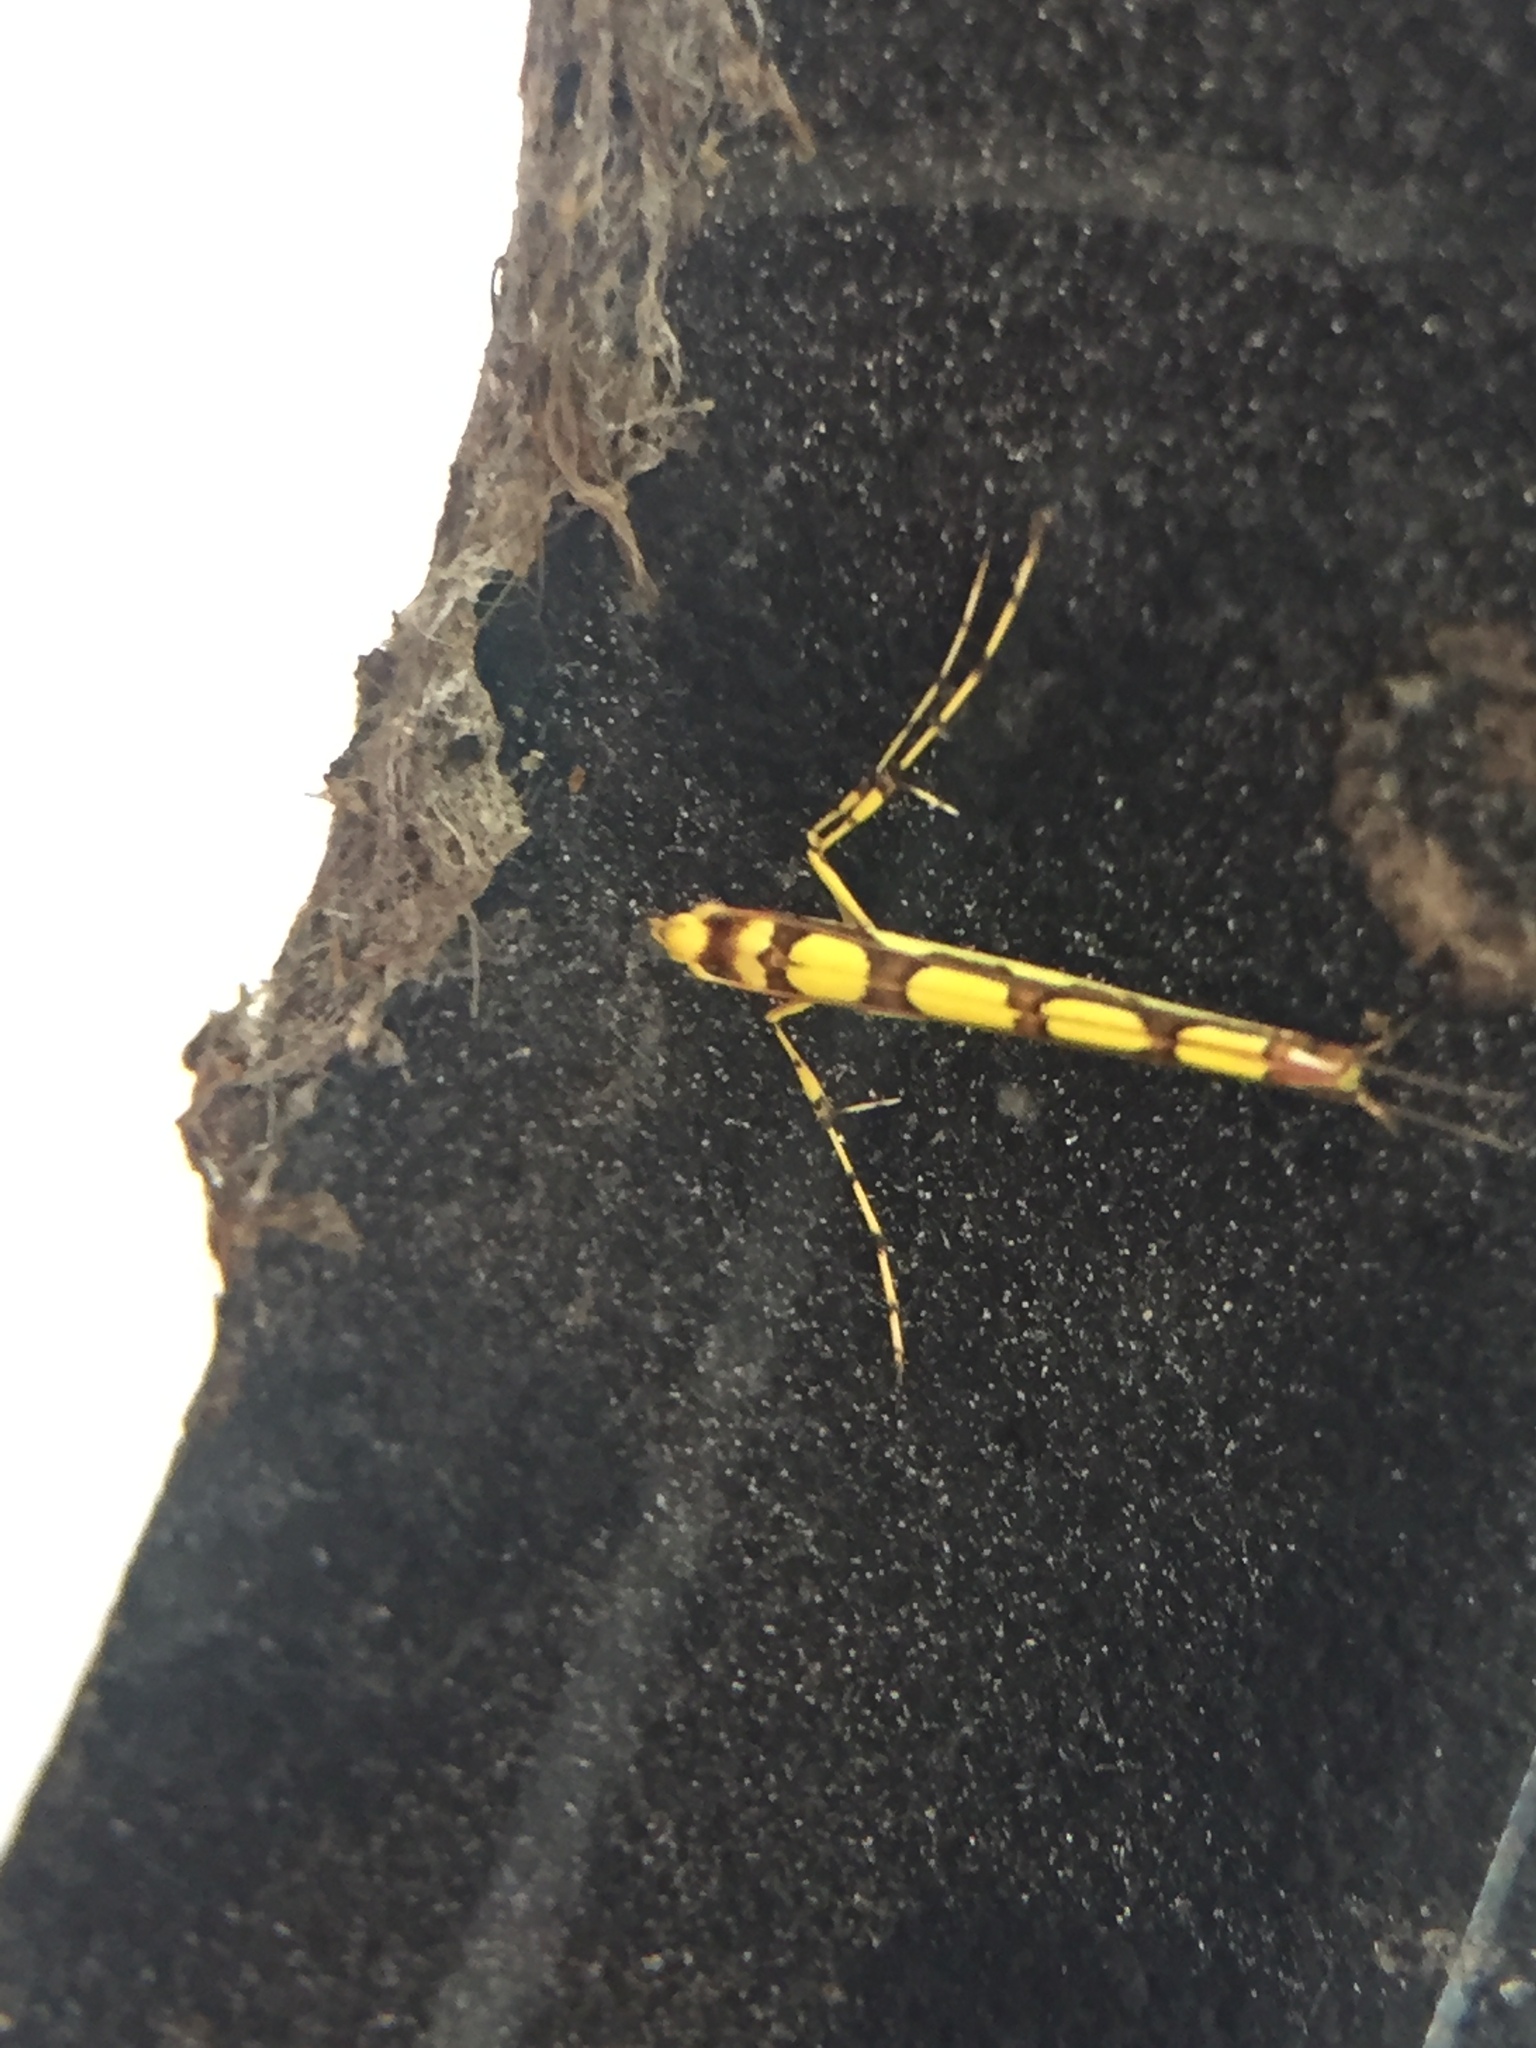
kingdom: Animalia
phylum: Arthropoda
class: Insecta
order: Lepidoptera
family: Gracillariidae
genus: Macarostola
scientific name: Macarostola miniella
